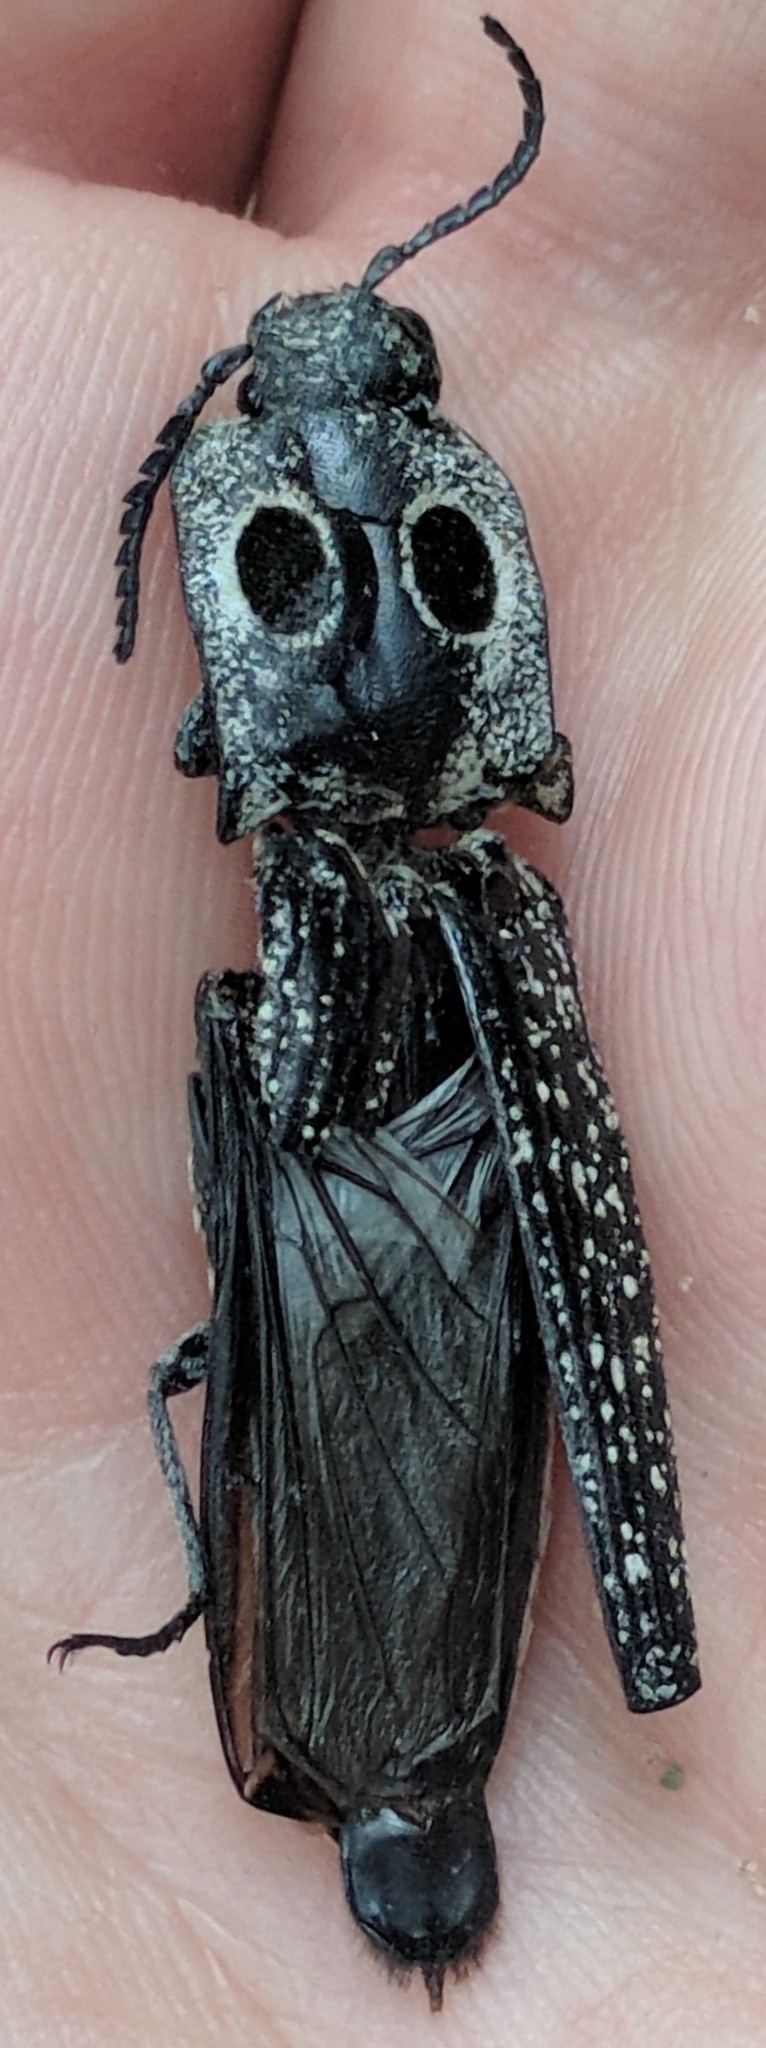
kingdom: Animalia
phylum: Arthropoda
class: Insecta
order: Coleoptera
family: Elateridae
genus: Alaus
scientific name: Alaus oculatus
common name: Eastern eyed click beetle
